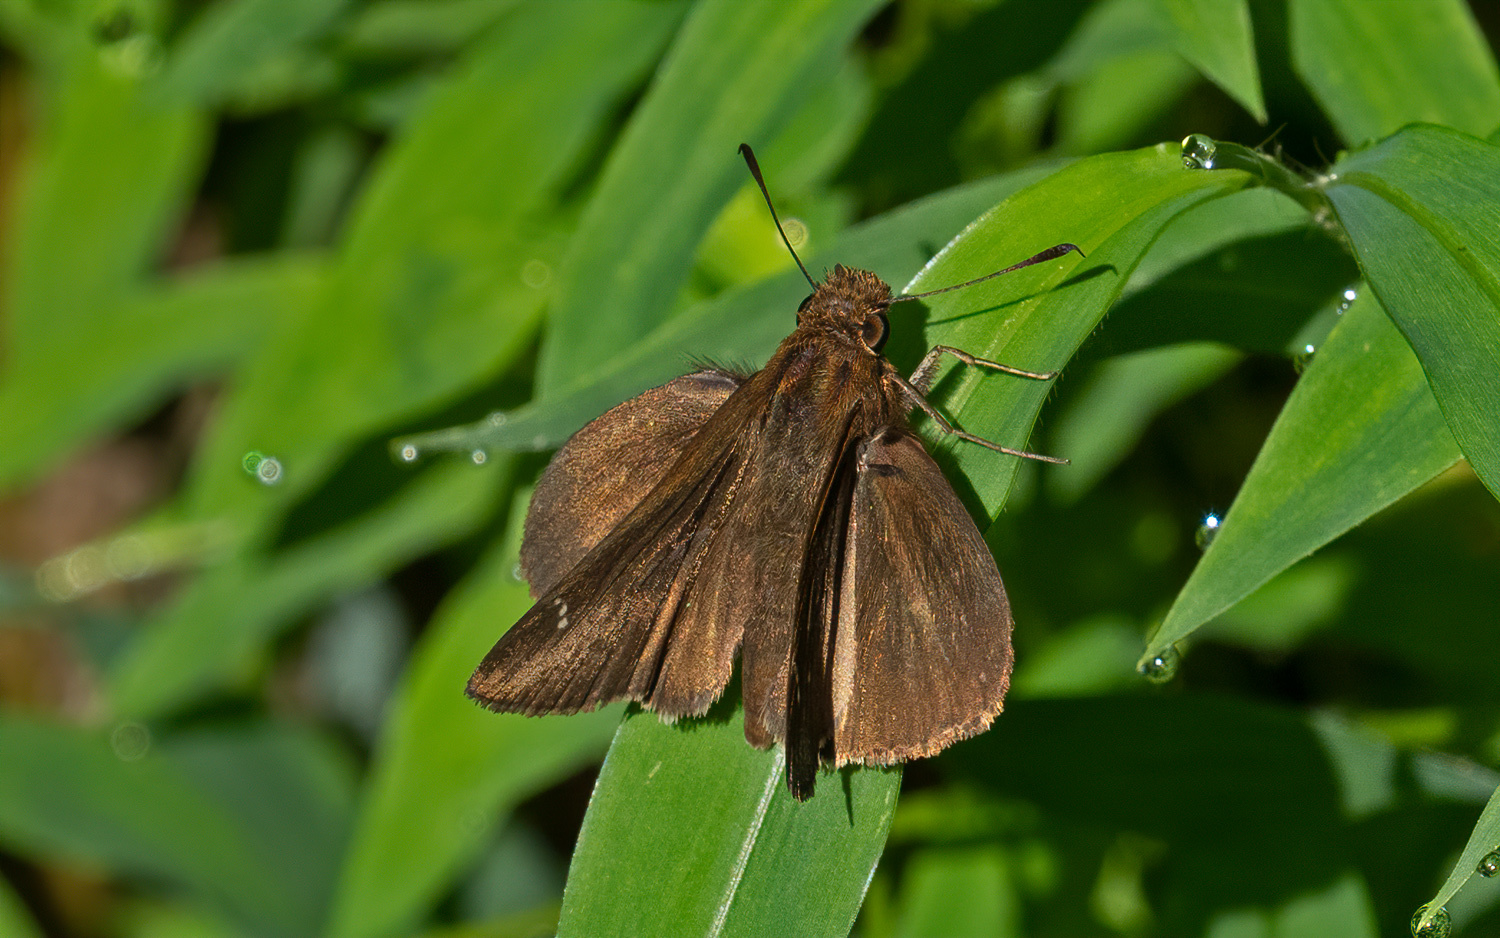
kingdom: Animalia
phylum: Arthropoda
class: Insecta
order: Lepidoptera
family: Hesperiidae
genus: Lerema
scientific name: Lerema accius
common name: Clouded skipper
